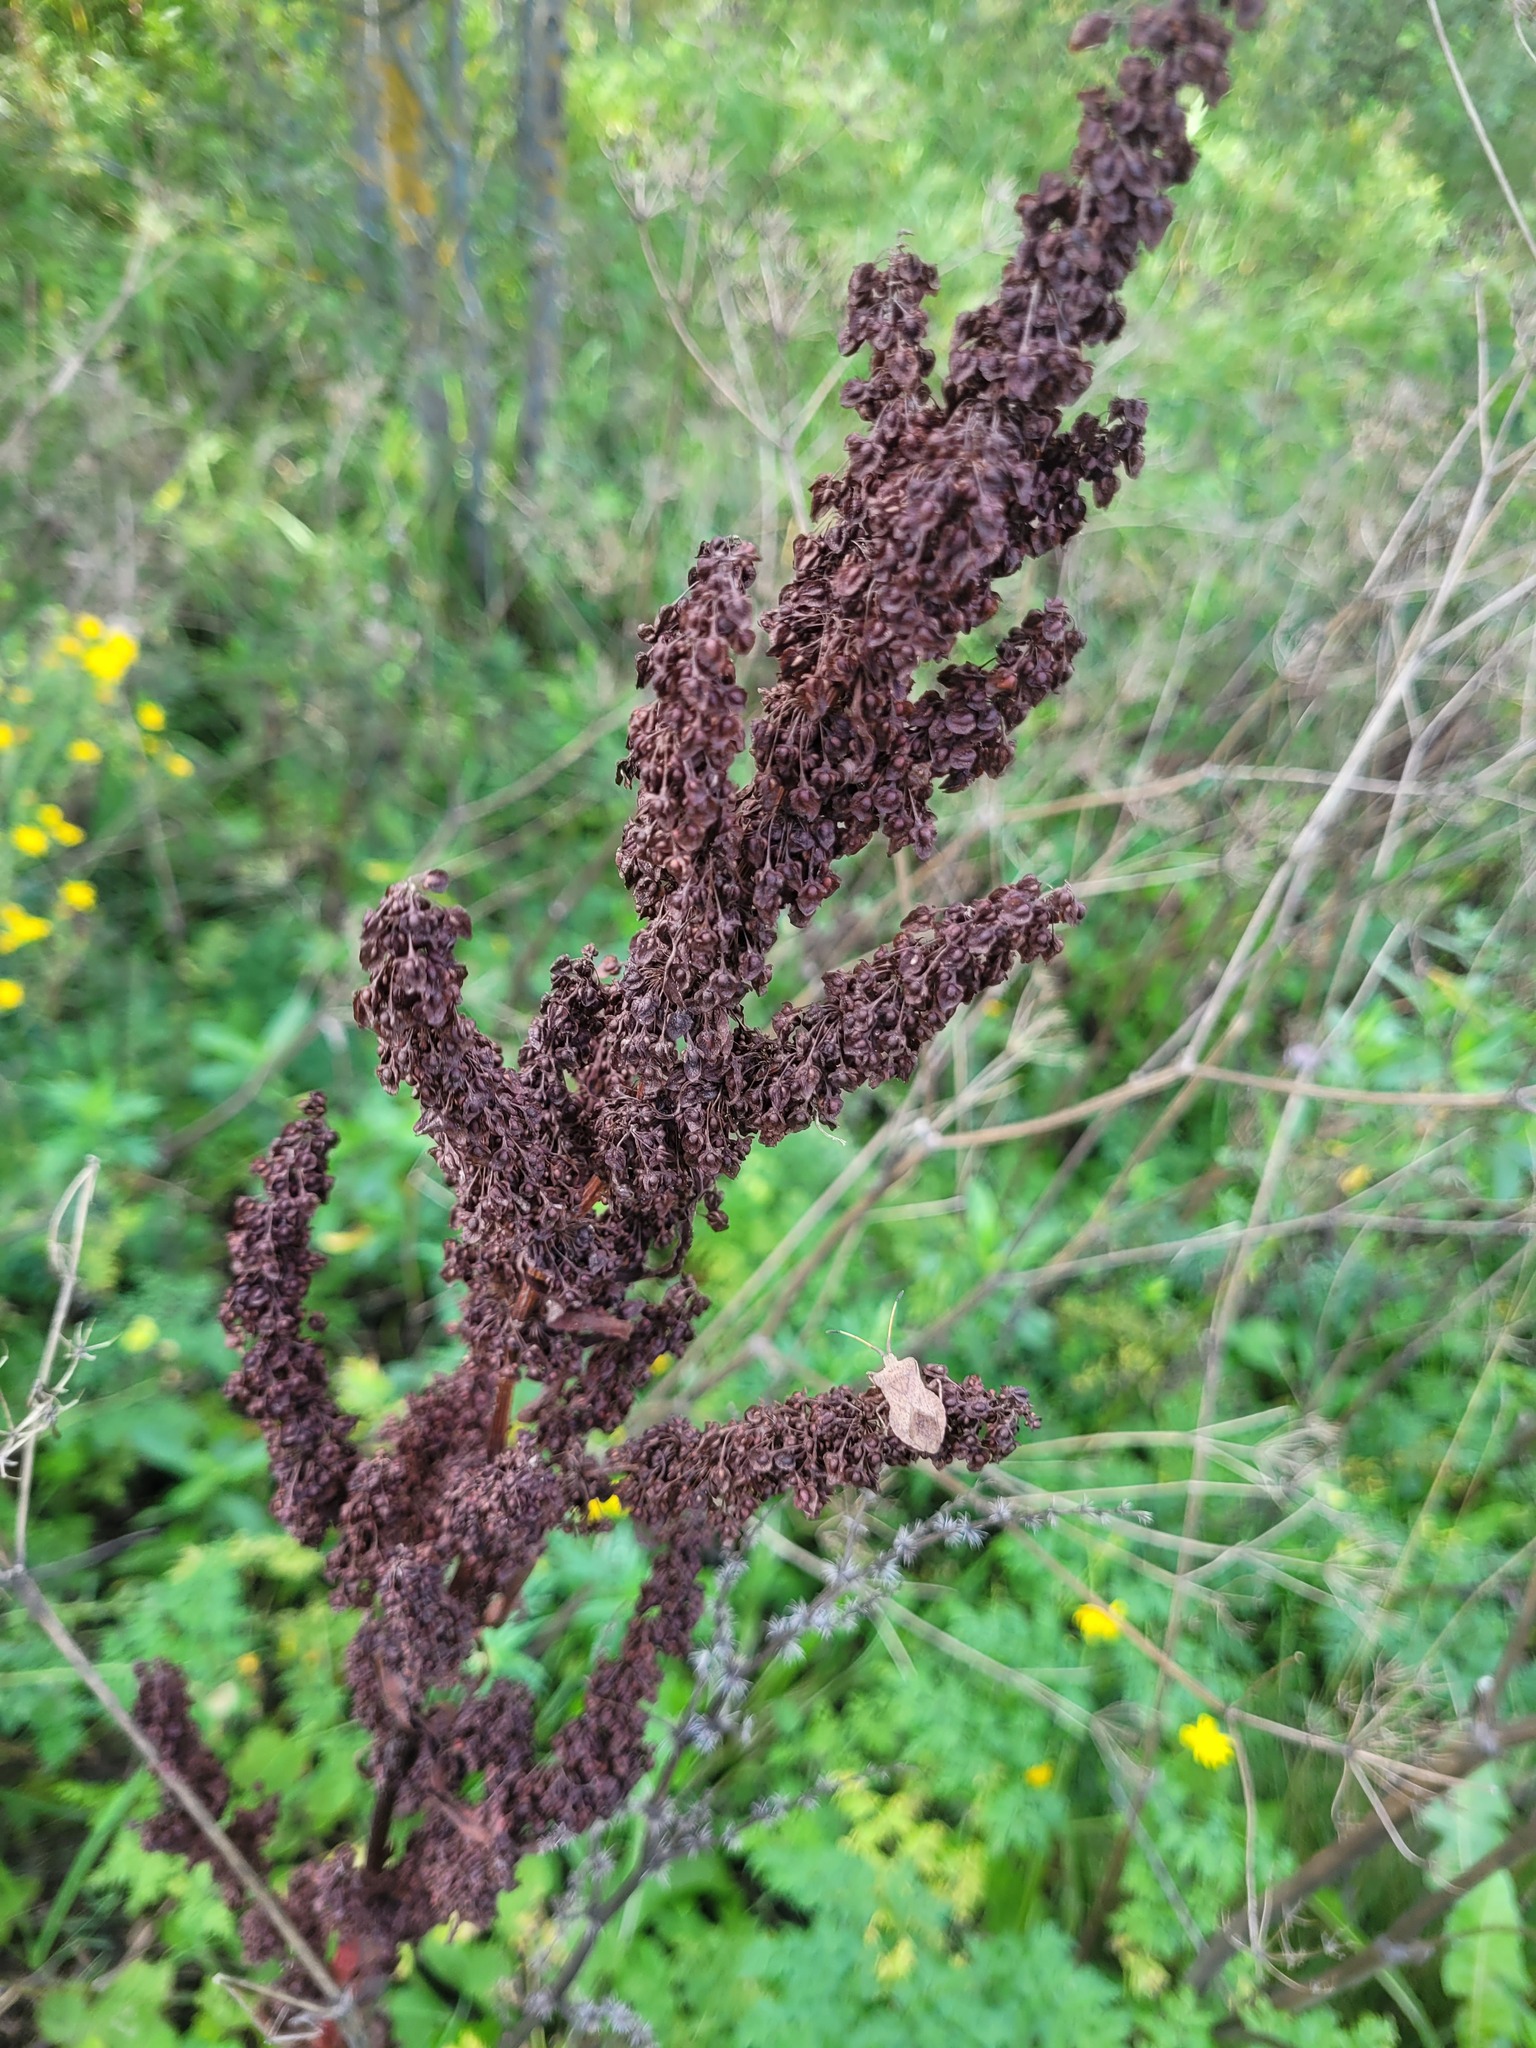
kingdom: Plantae
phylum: Tracheophyta
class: Magnoliopsida
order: Caryophyllales
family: Polygonaceae
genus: Rumex
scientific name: Rumex crispus
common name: Curled dock
